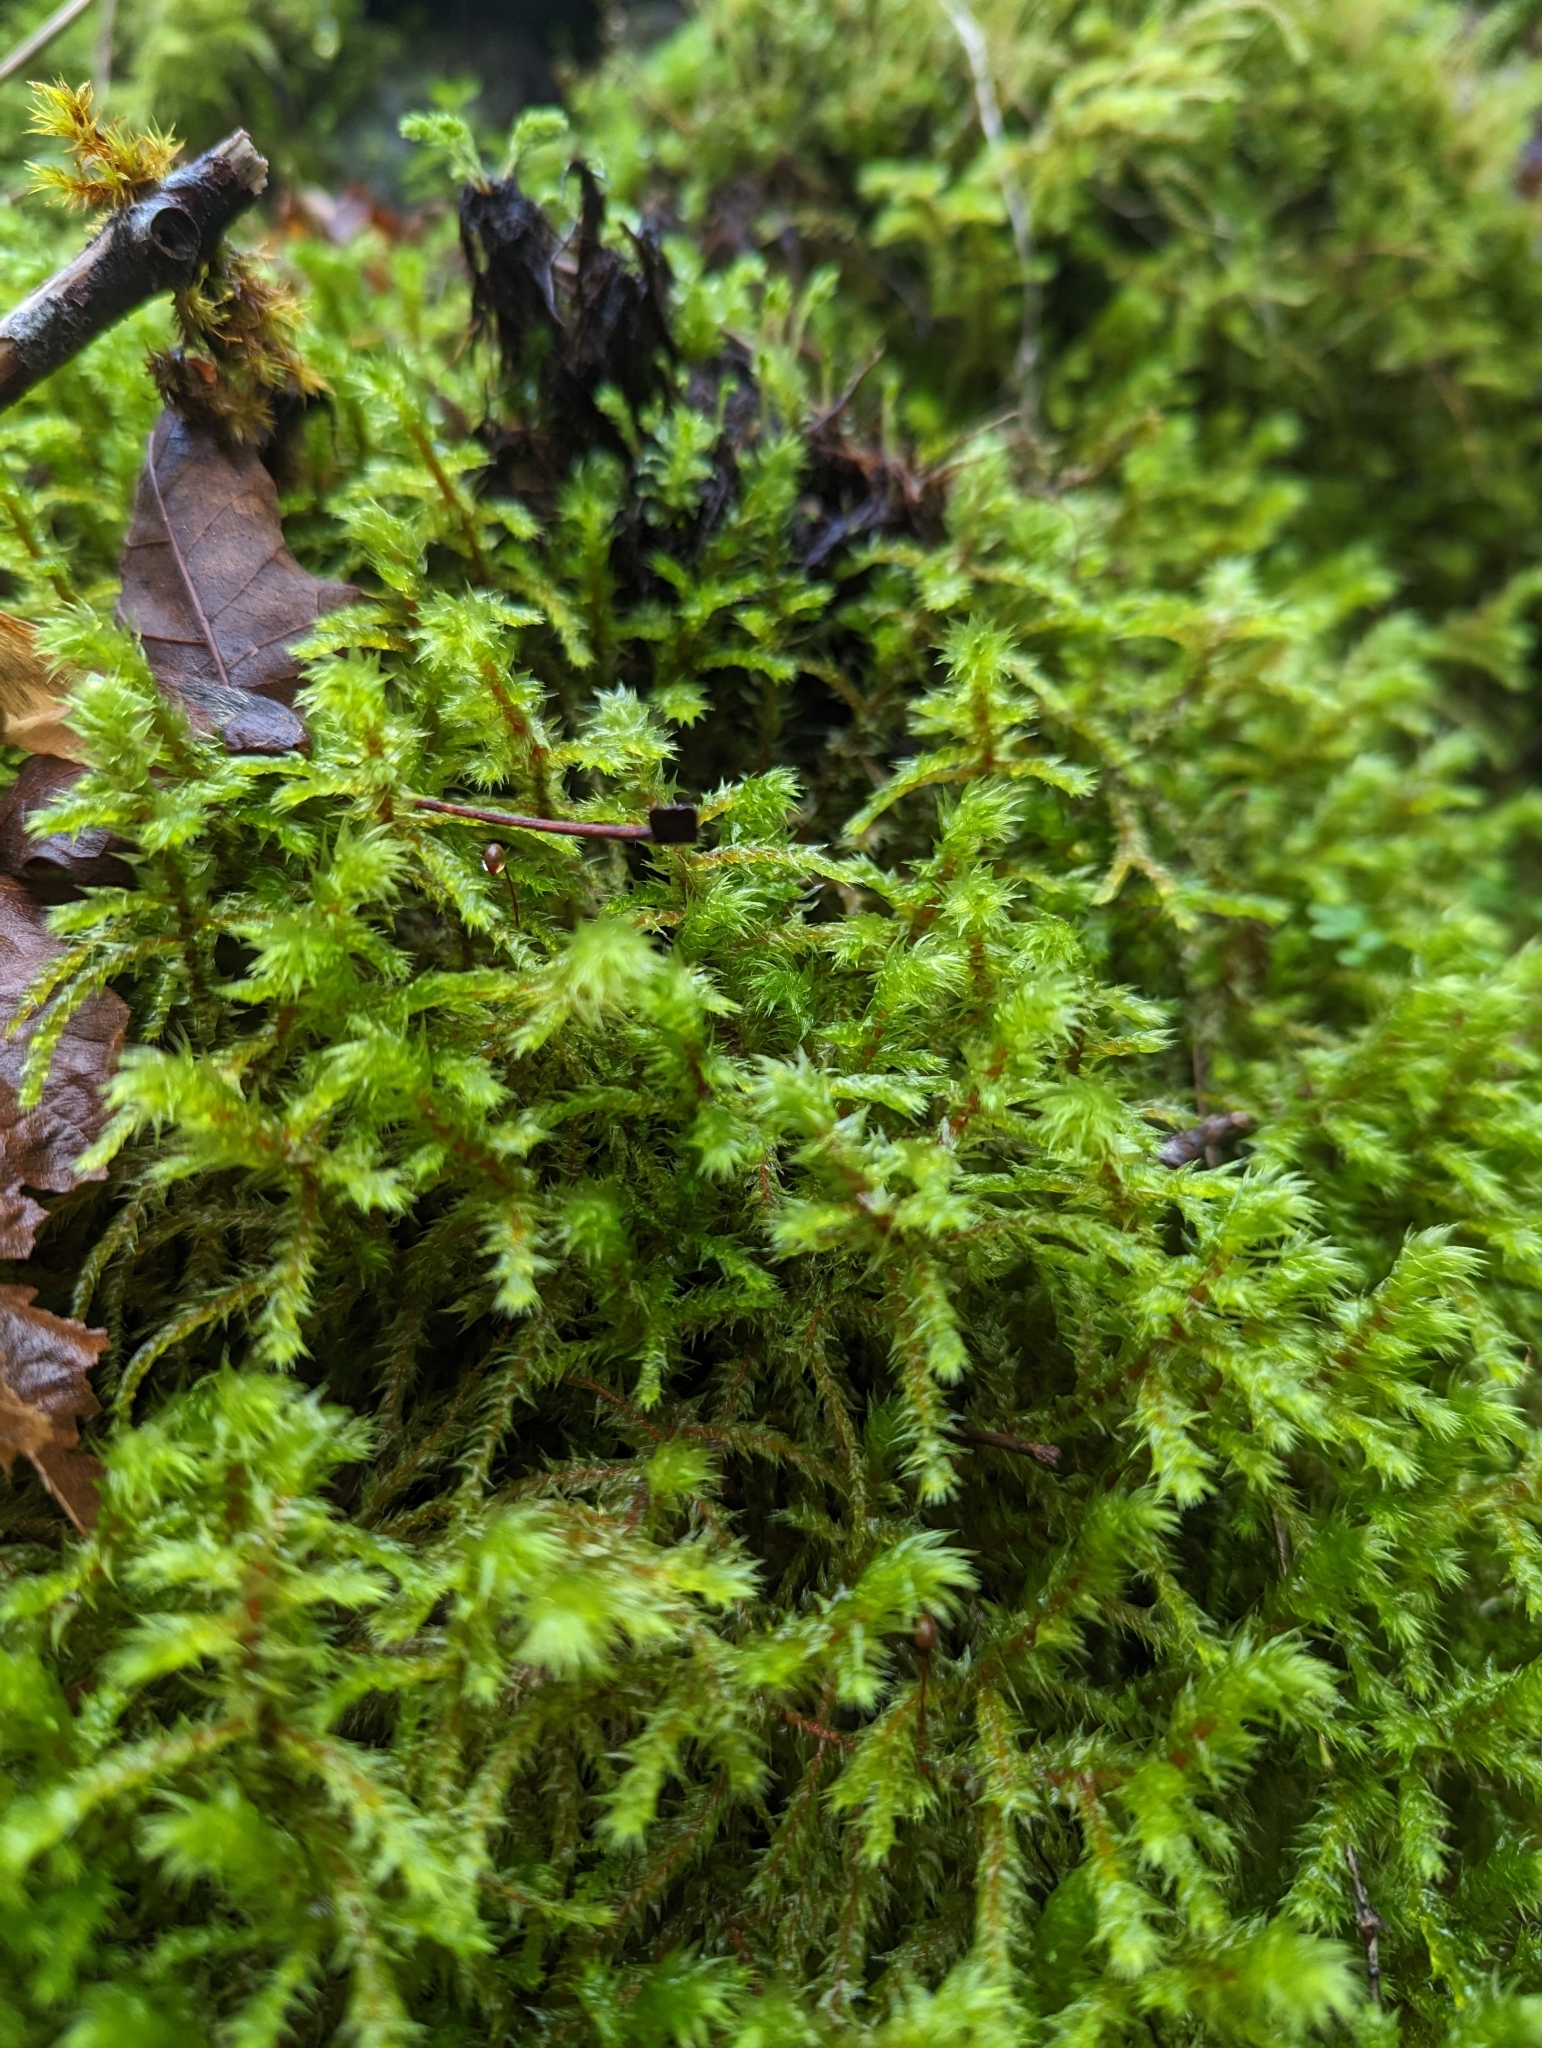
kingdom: Plantae
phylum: Bryophyta
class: Bryopsida
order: Hypnales
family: Hylocomiaceae
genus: Hylocomiadelphus
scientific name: Hylocomiadelphus triquetrus
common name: Rough goose neck moss
